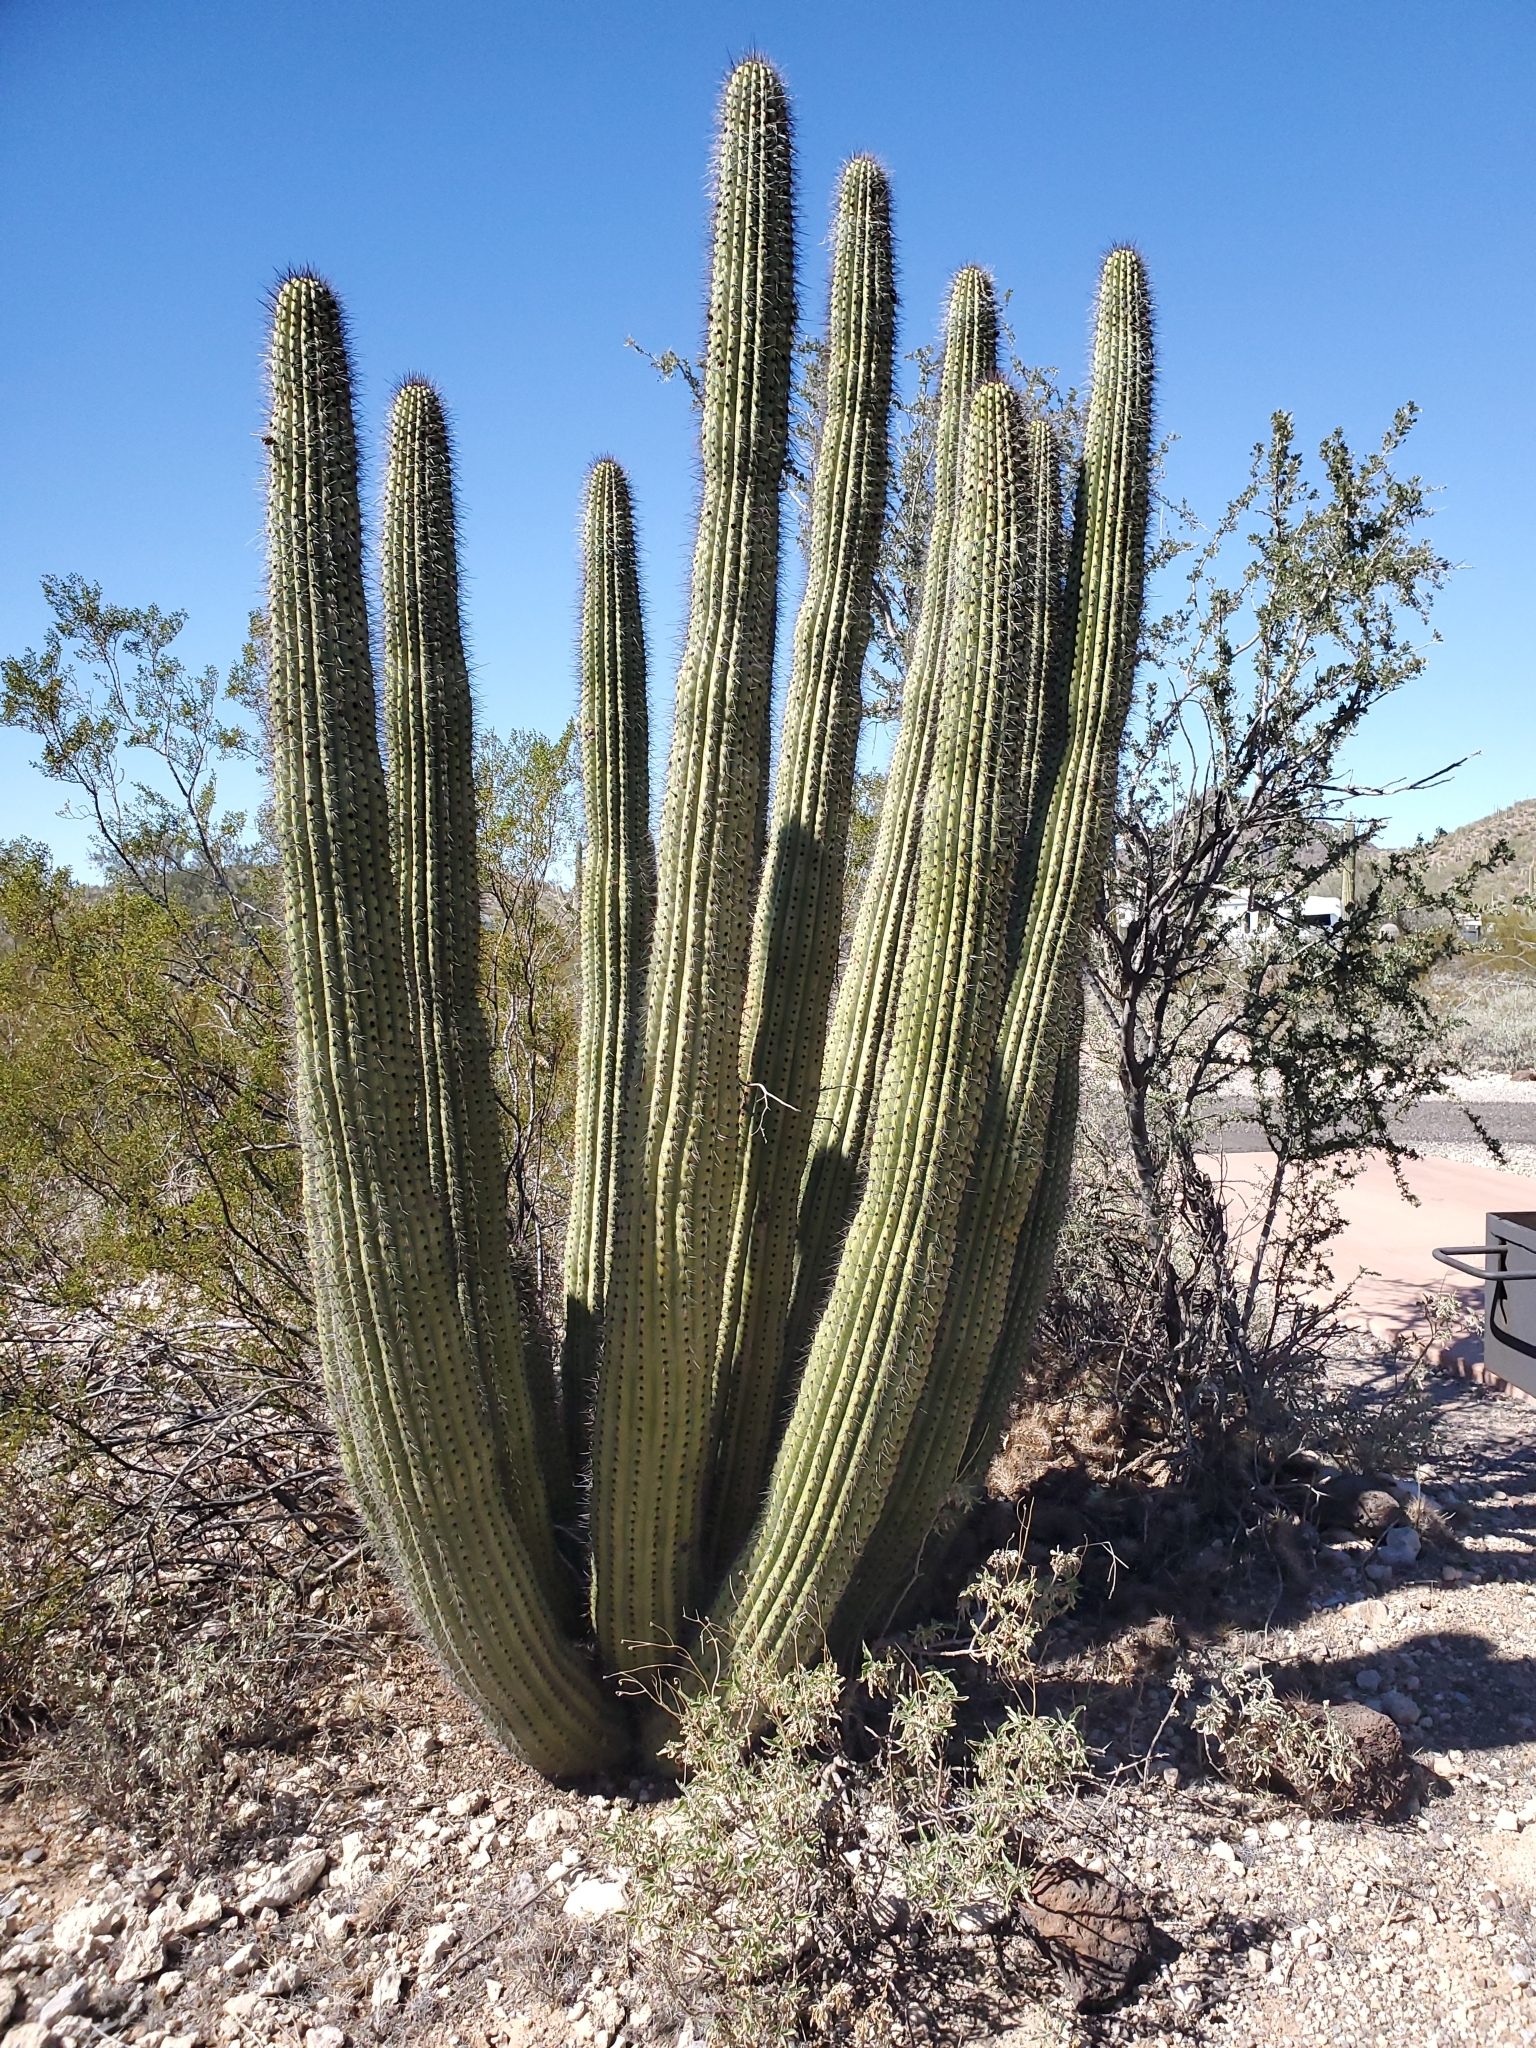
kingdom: Plantae
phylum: Tracheophyta
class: Magnoliopsida
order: Caryophyllales
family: Cactaceae
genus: Stenocereus
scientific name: Stenocereus thurberi
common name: Organ pipe cactus
